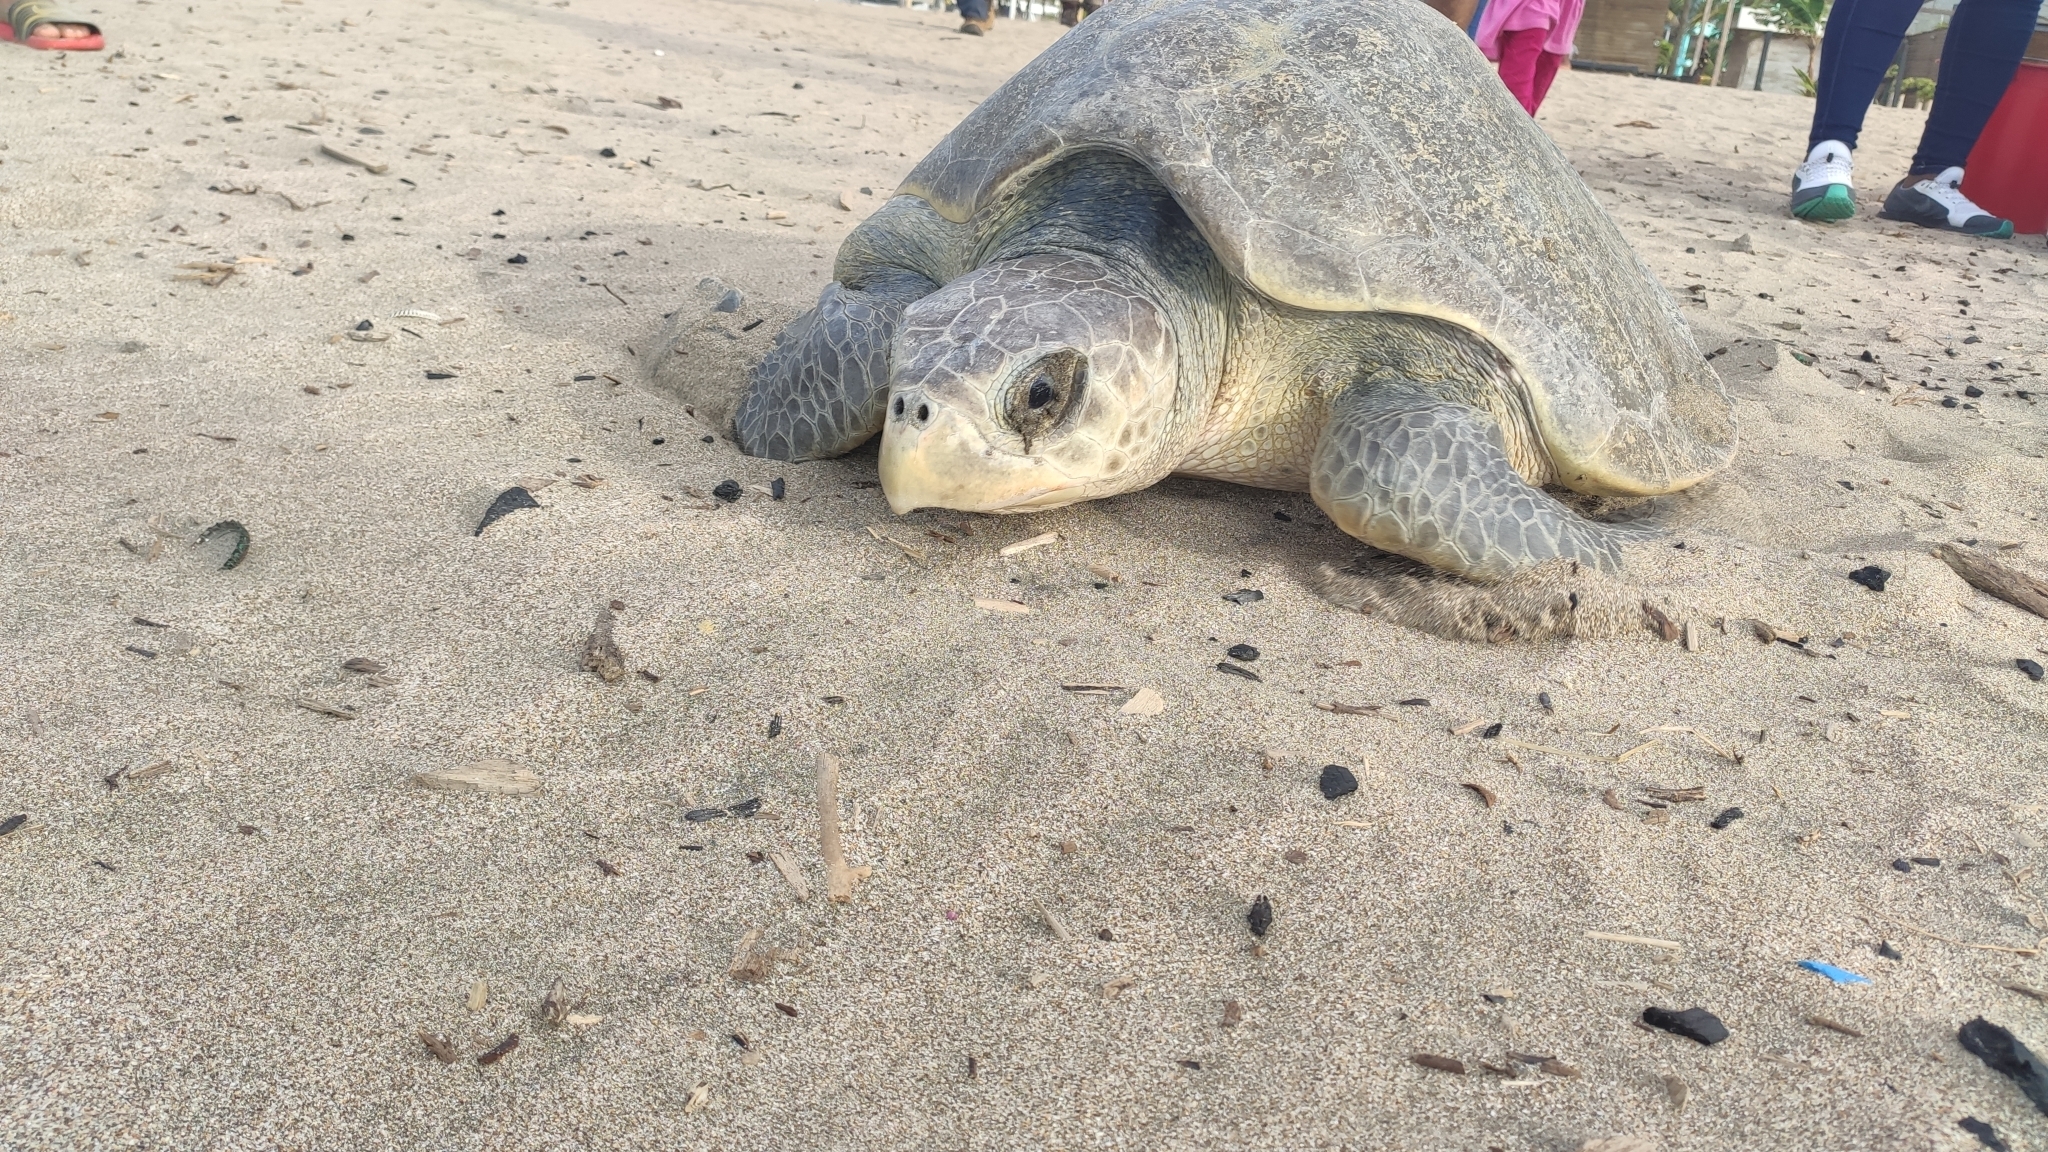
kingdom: Animalia
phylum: Chordata
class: Testudines
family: Cheloniidae
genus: Lepidochelys
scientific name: Lepidochelys olivacea
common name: Olive ridley
